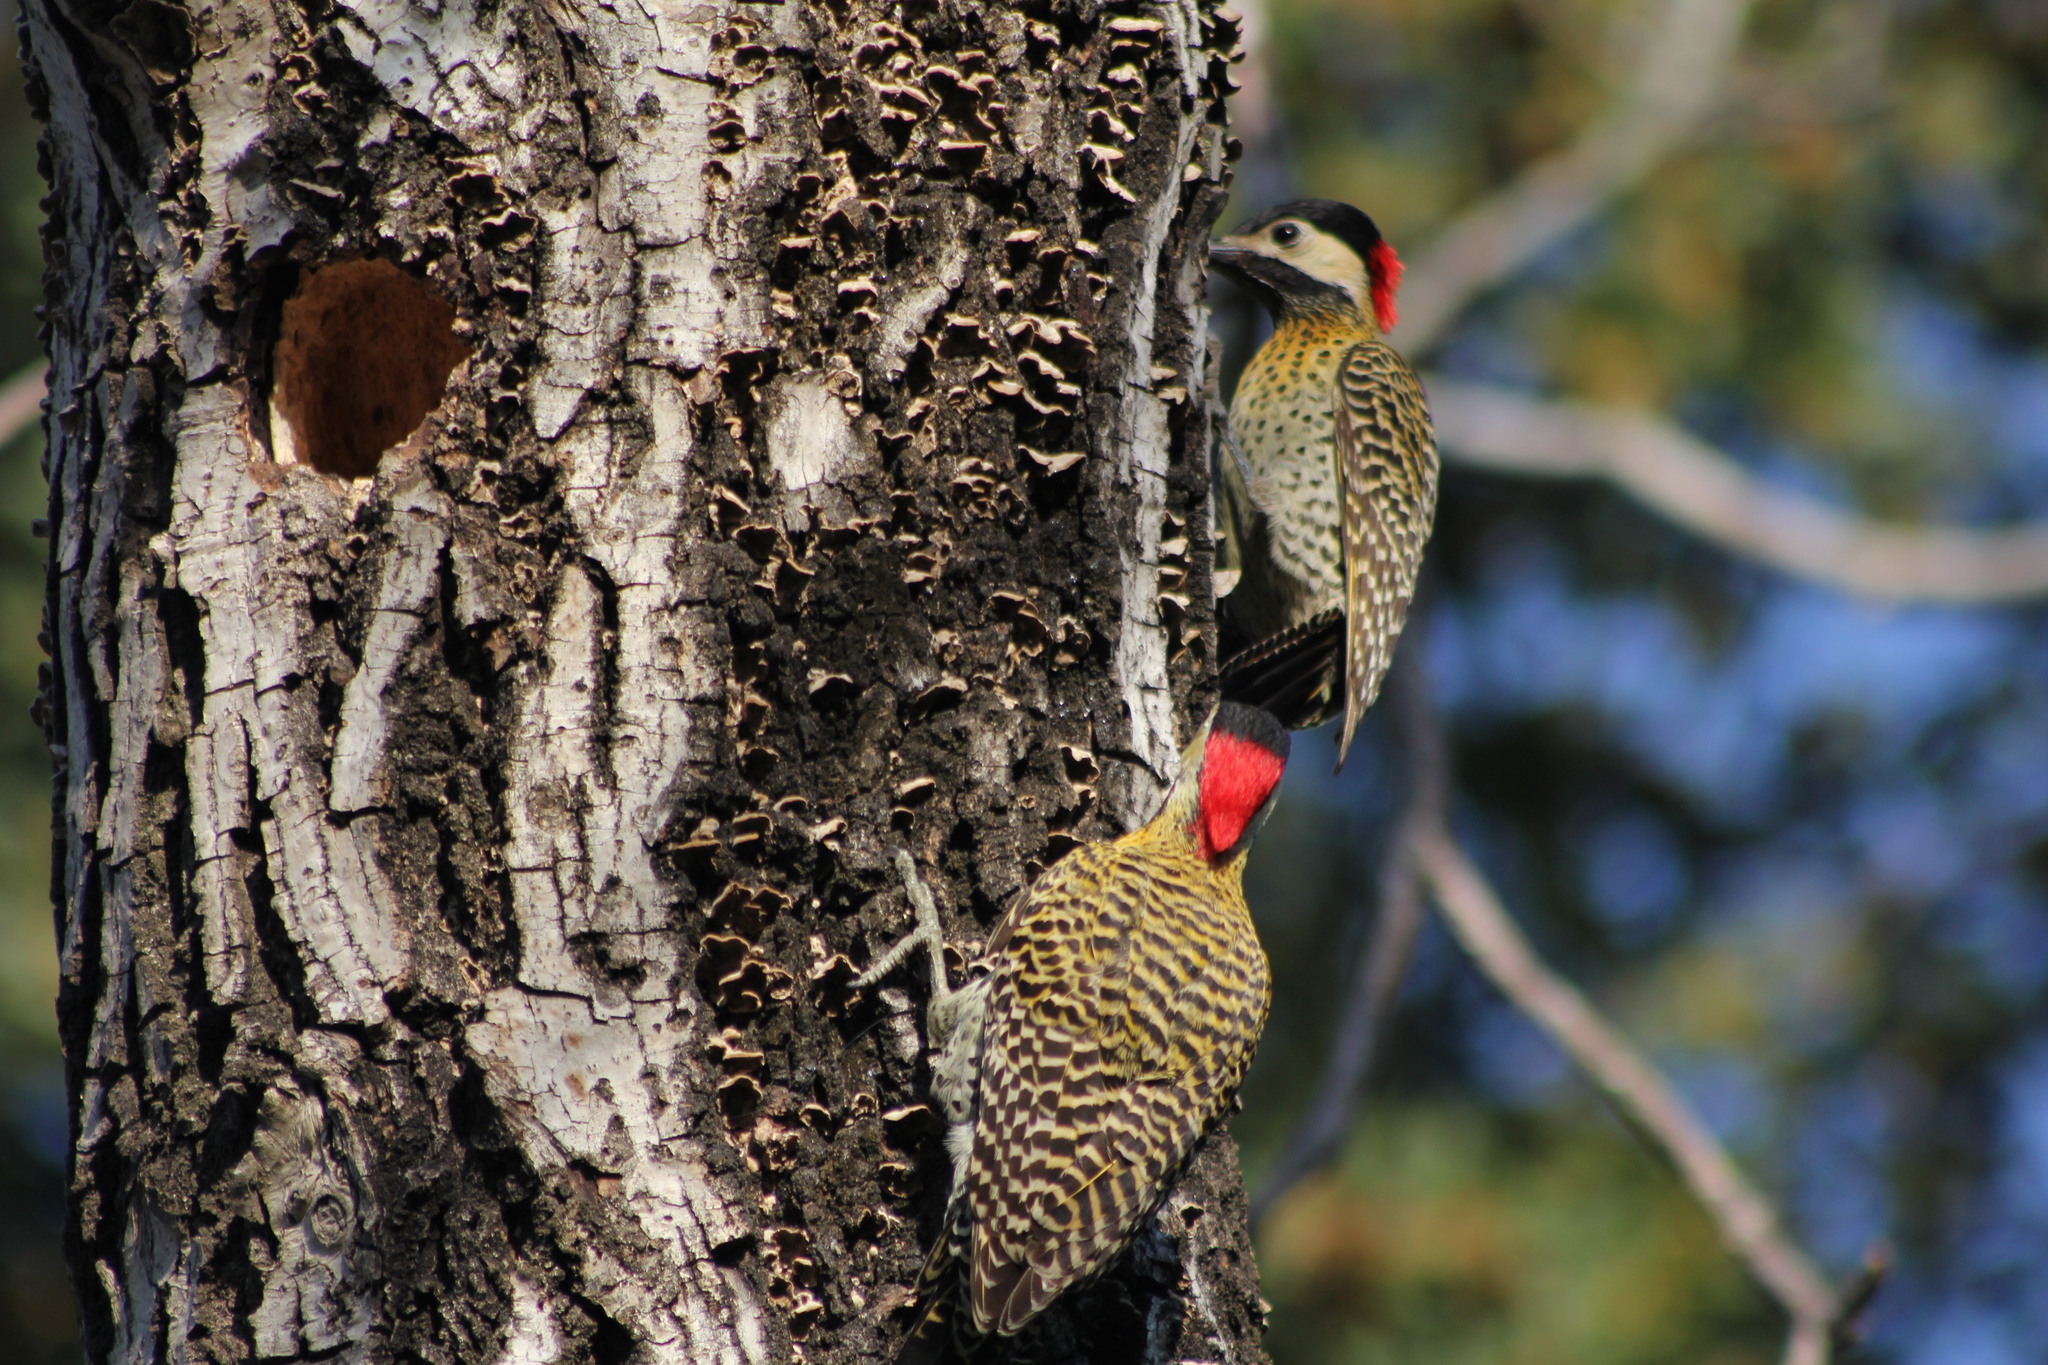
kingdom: Animalia
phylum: Chordata
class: Aves
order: Piciformes
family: Picidae
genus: Colaptes
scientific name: Colaptes melanochloros
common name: Green-barred woodpecker
